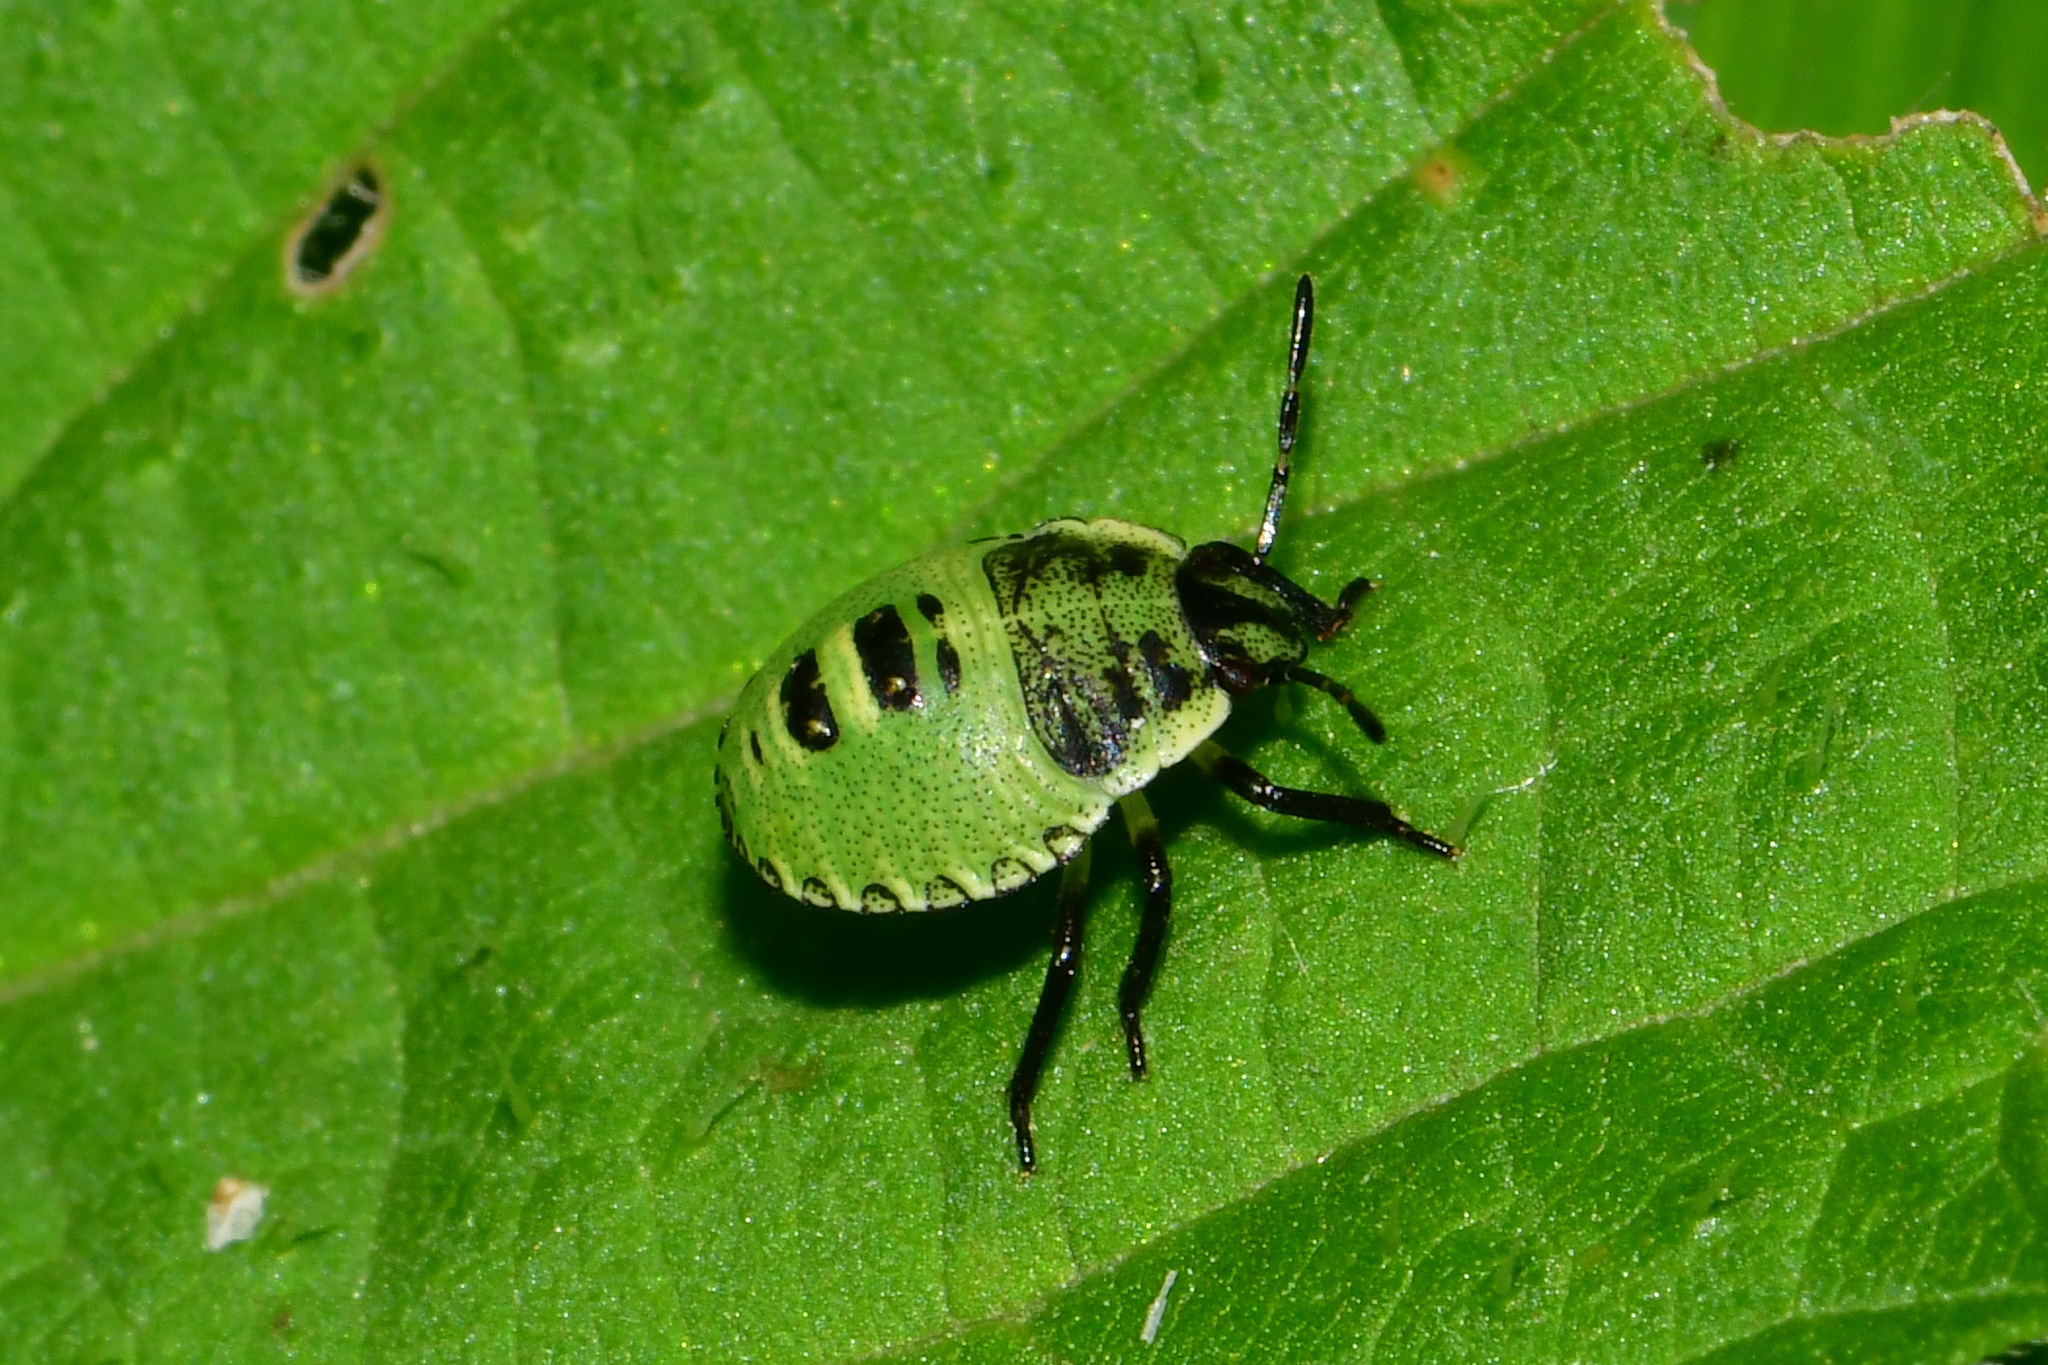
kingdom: Animalia
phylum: Arthropoda
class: Insecta
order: Hemiptera
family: Pentatomidae
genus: Palomena
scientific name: Palomena prasina
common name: Green shieldbug
